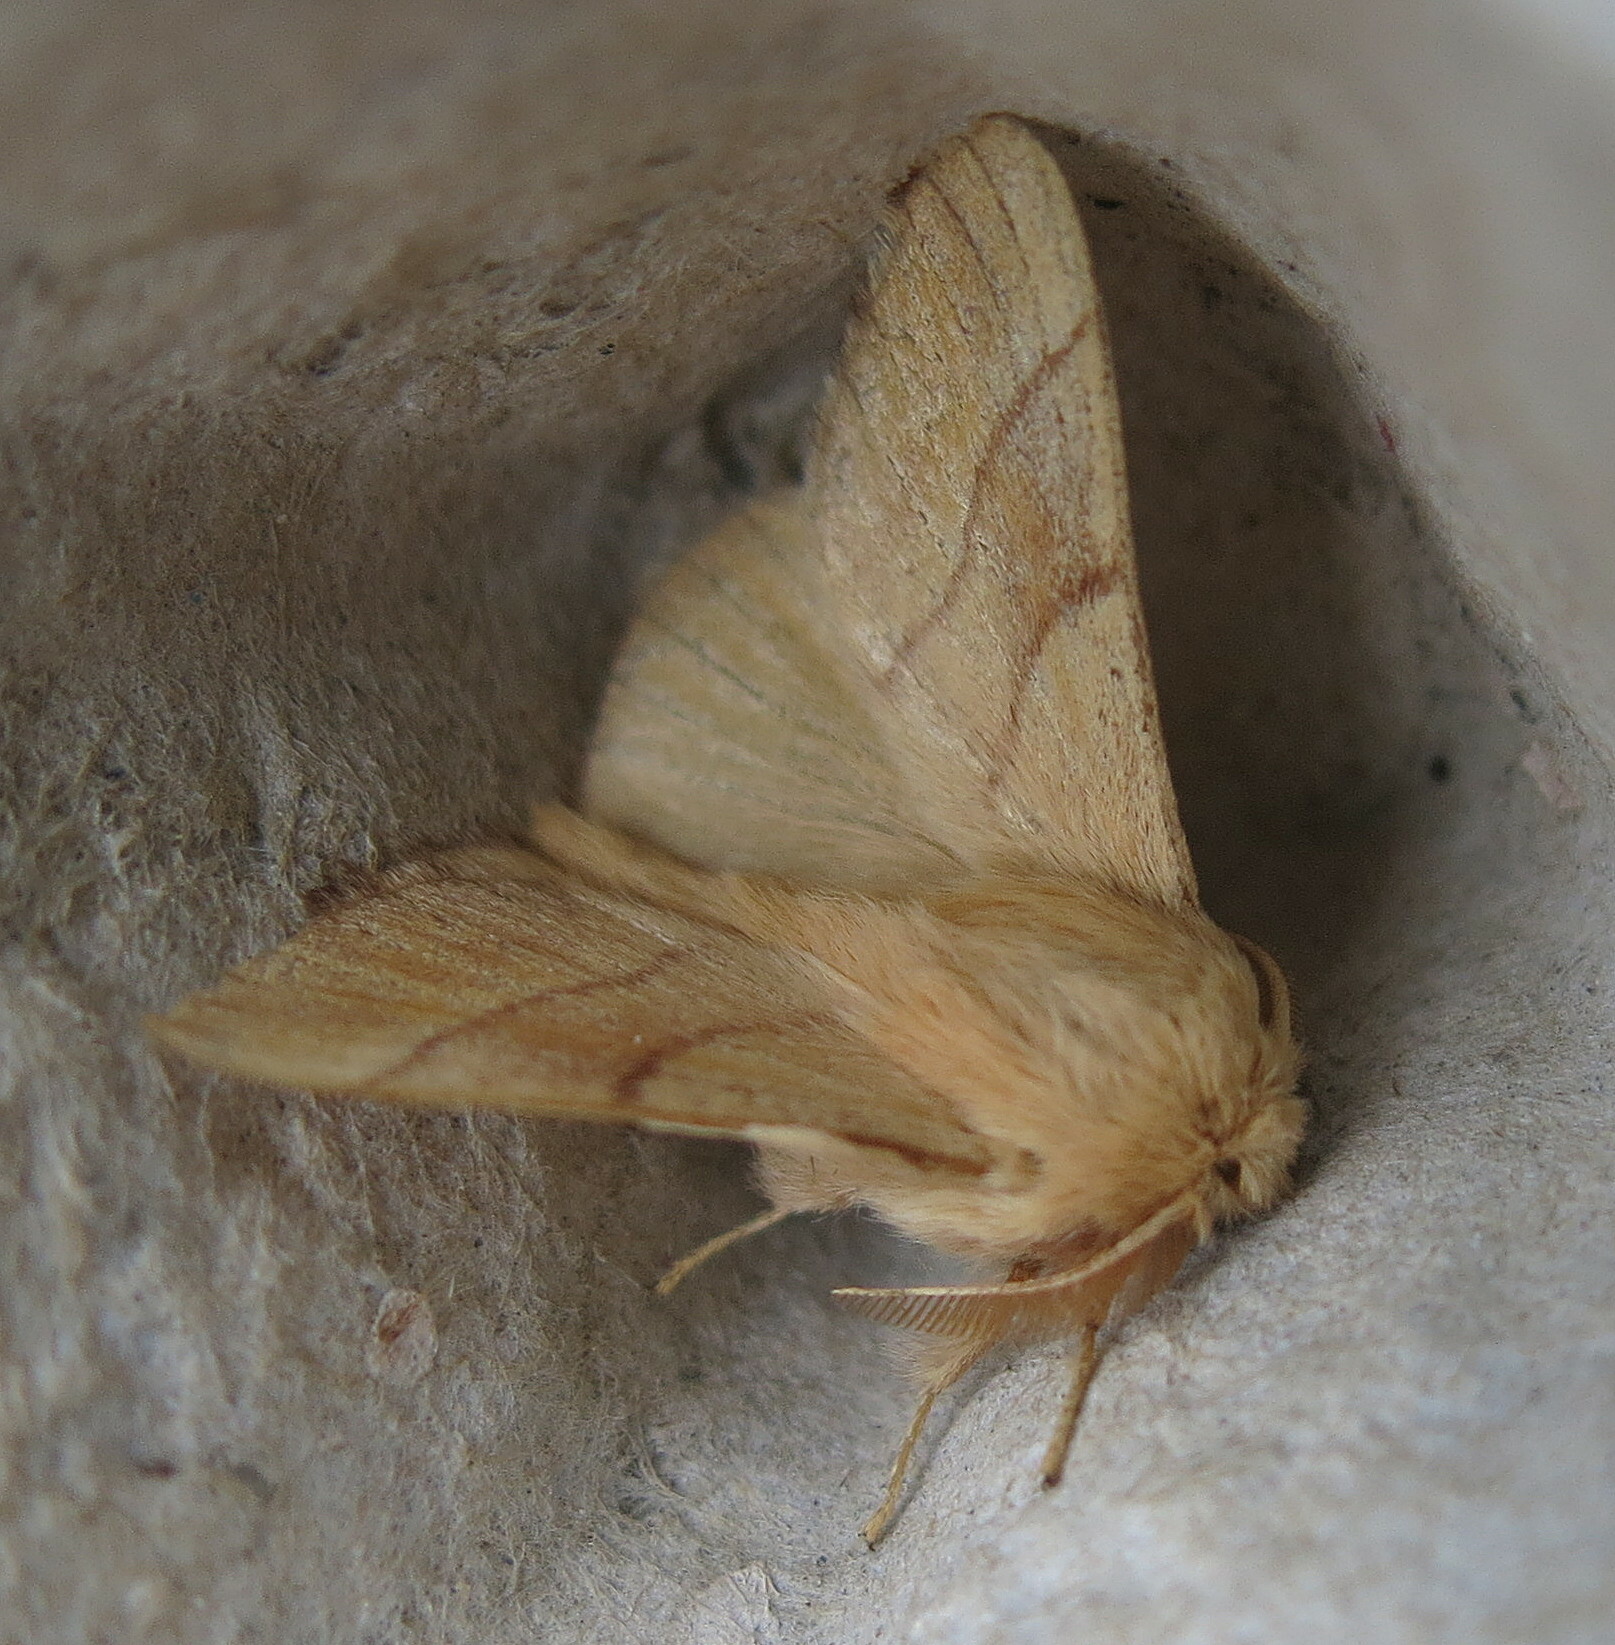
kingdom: Animalia
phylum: Arthropoda
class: Insecta
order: Lepidoptera
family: Lasiocampidae
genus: Malacosoma
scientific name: Malacosoma neustria
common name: The lackey
